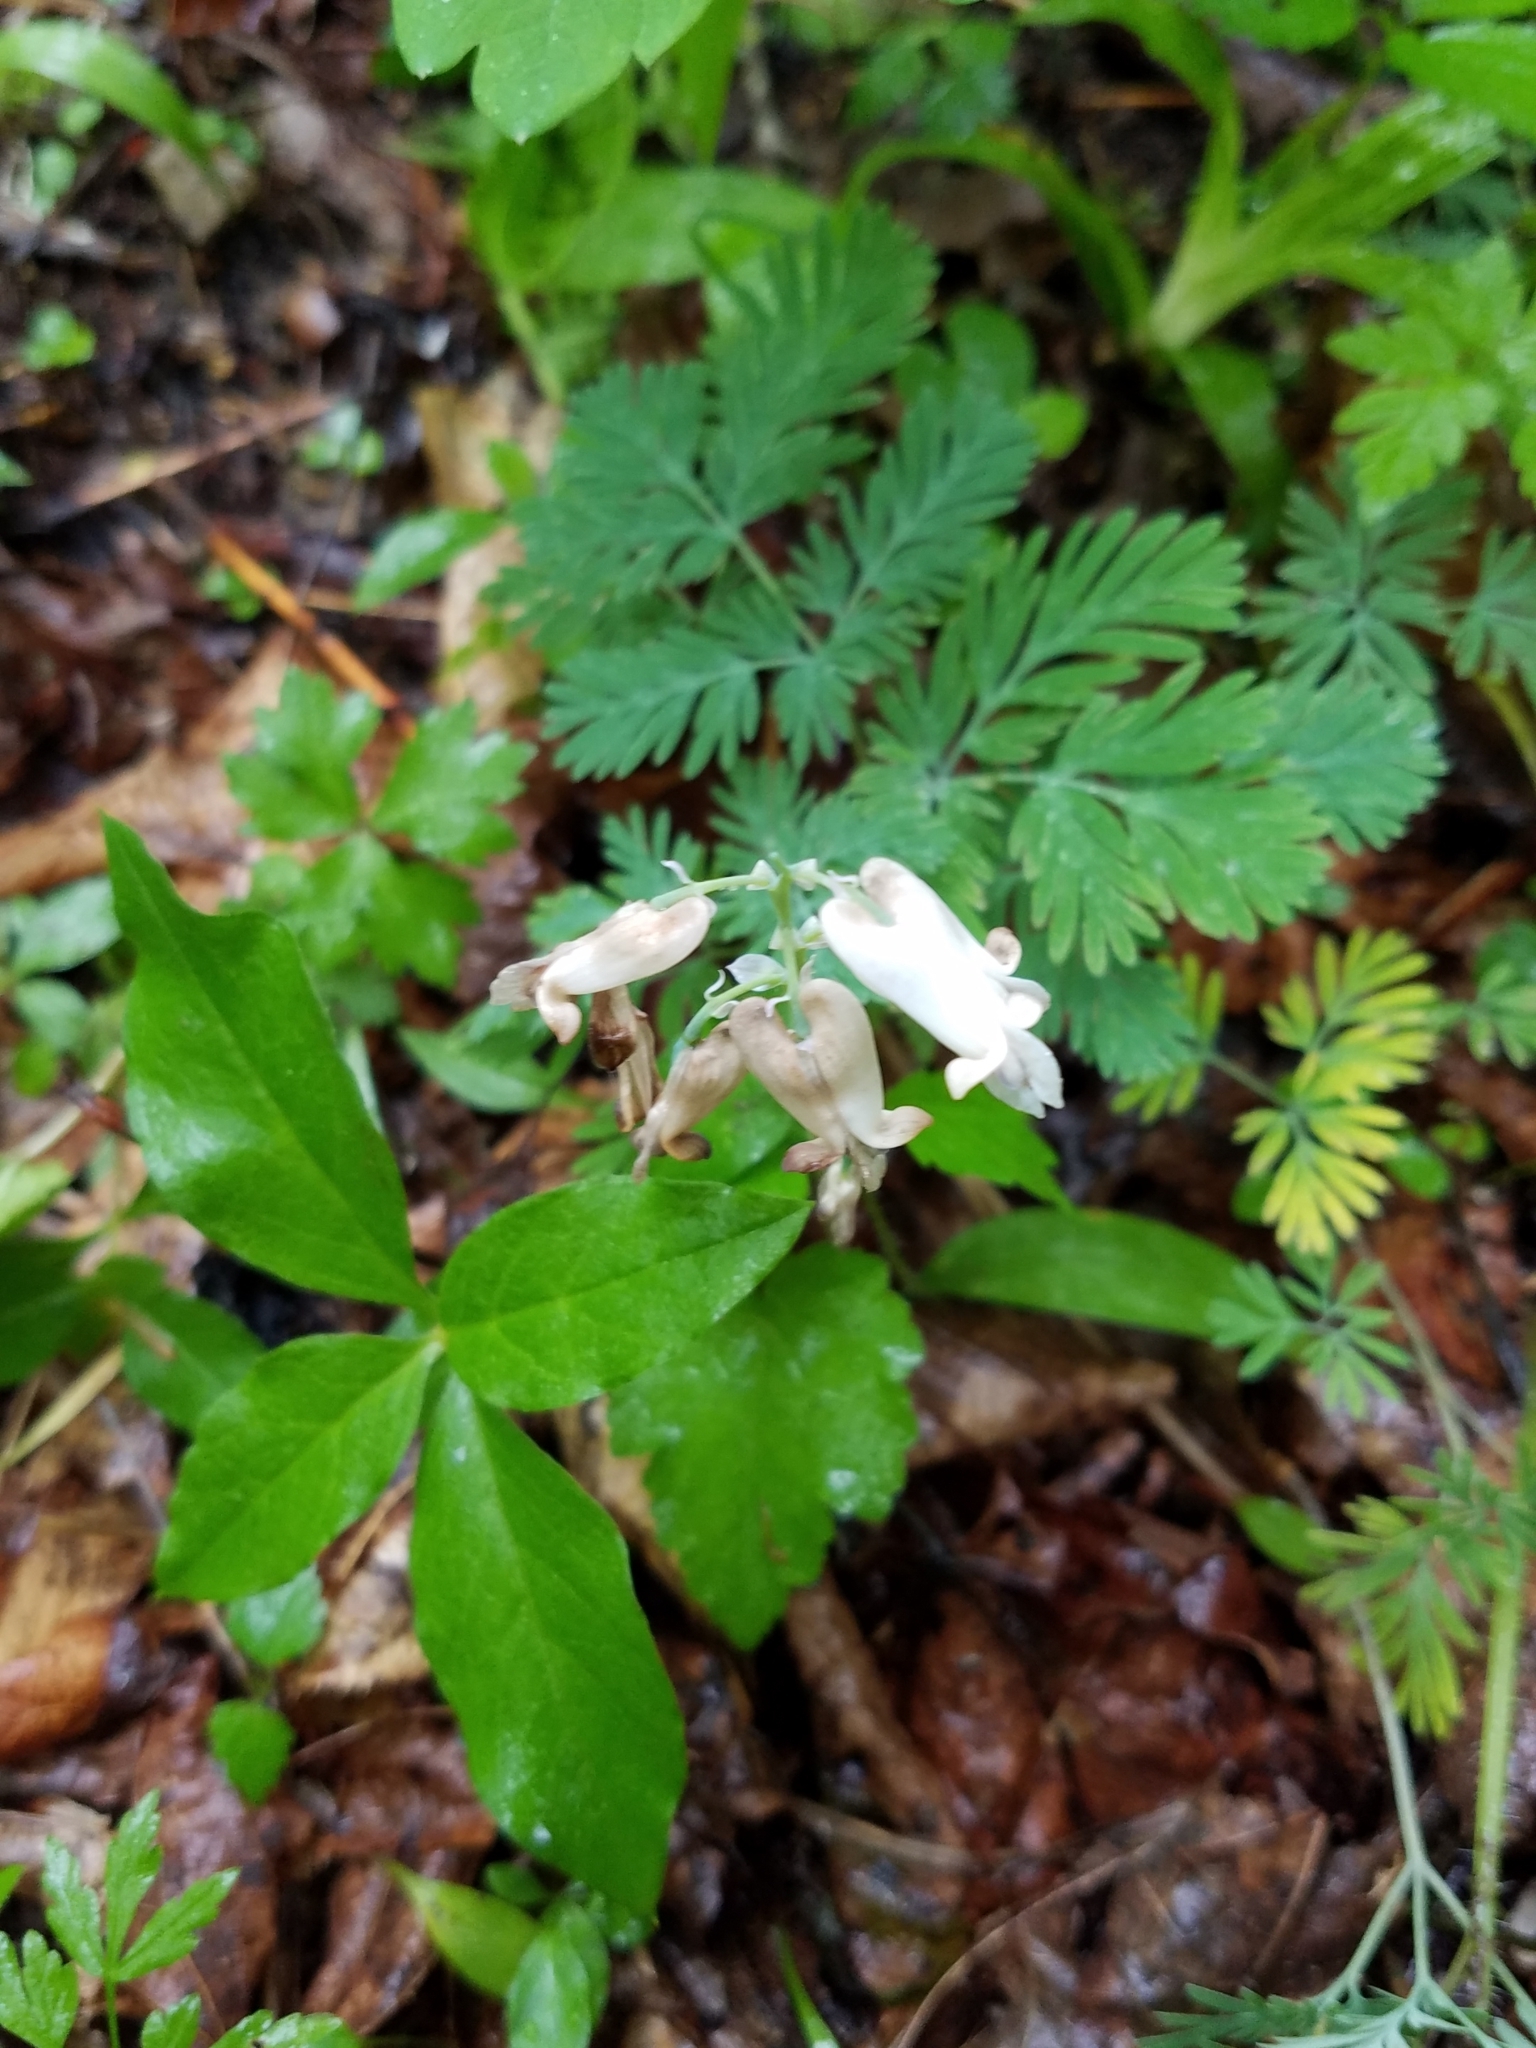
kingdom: Plantae
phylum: Tracheophyta
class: Magnoliopsida
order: Ranunculales
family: Papaveraceae
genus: Dicentra
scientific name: Dicentra canadensis
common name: Squirrel-corn
